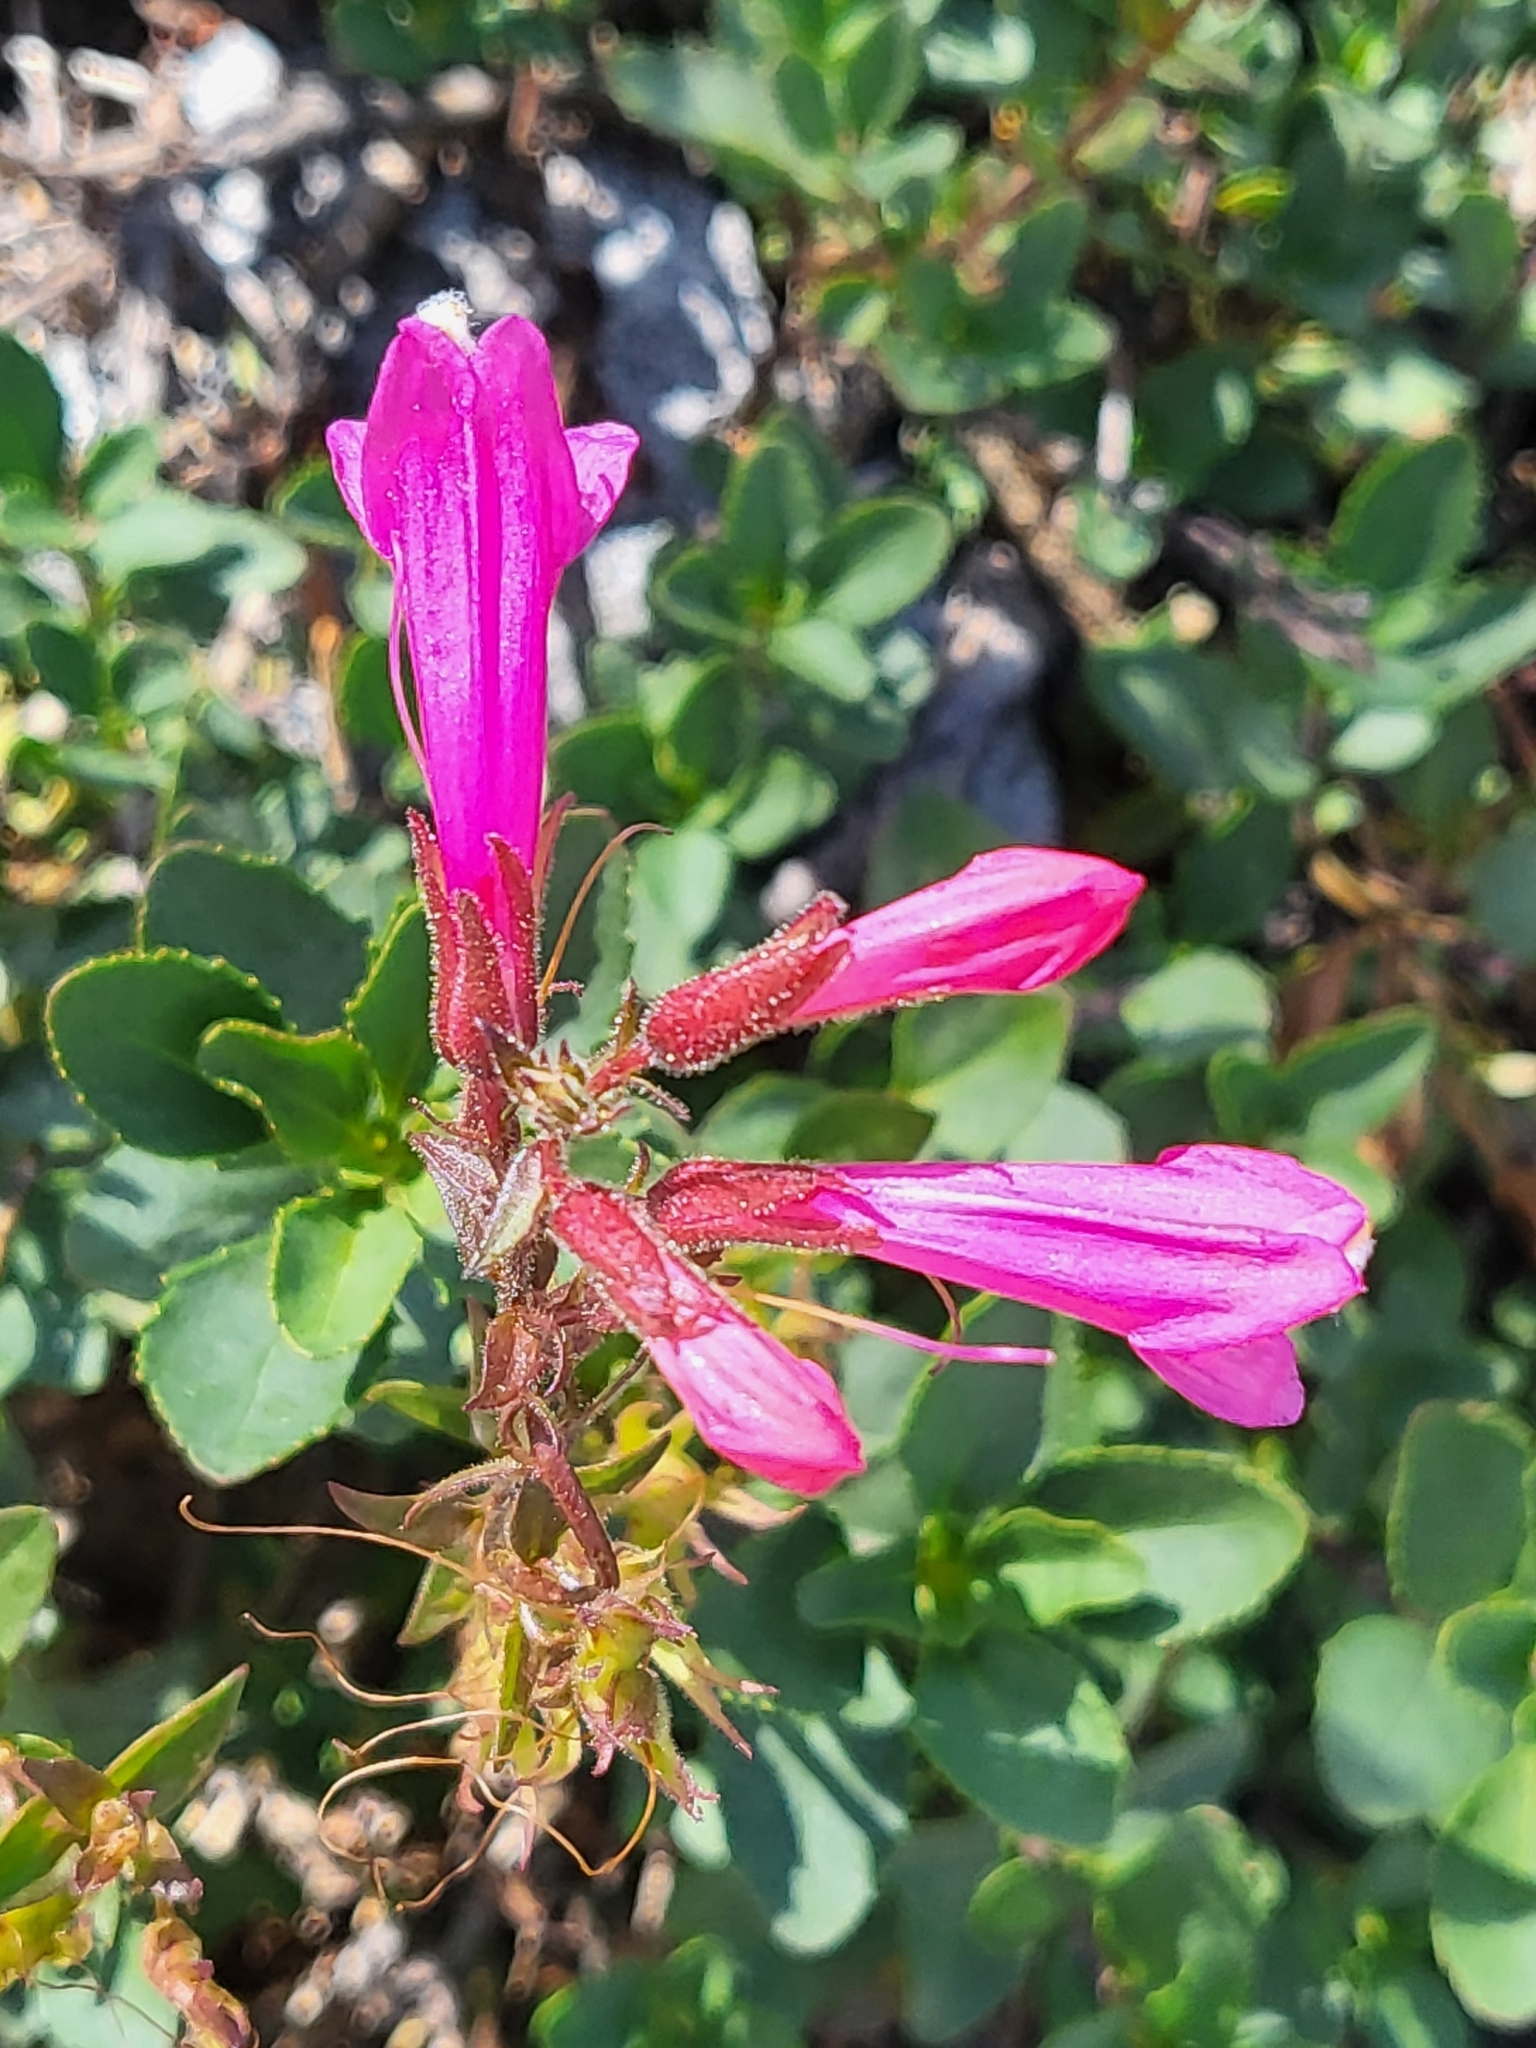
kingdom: Plantae
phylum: Tracheophyta
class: Magnoliopsida
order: Lamiales
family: Plantaginaceae
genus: Penstemon
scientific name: Penstemon newberryi
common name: Mountain-pride
